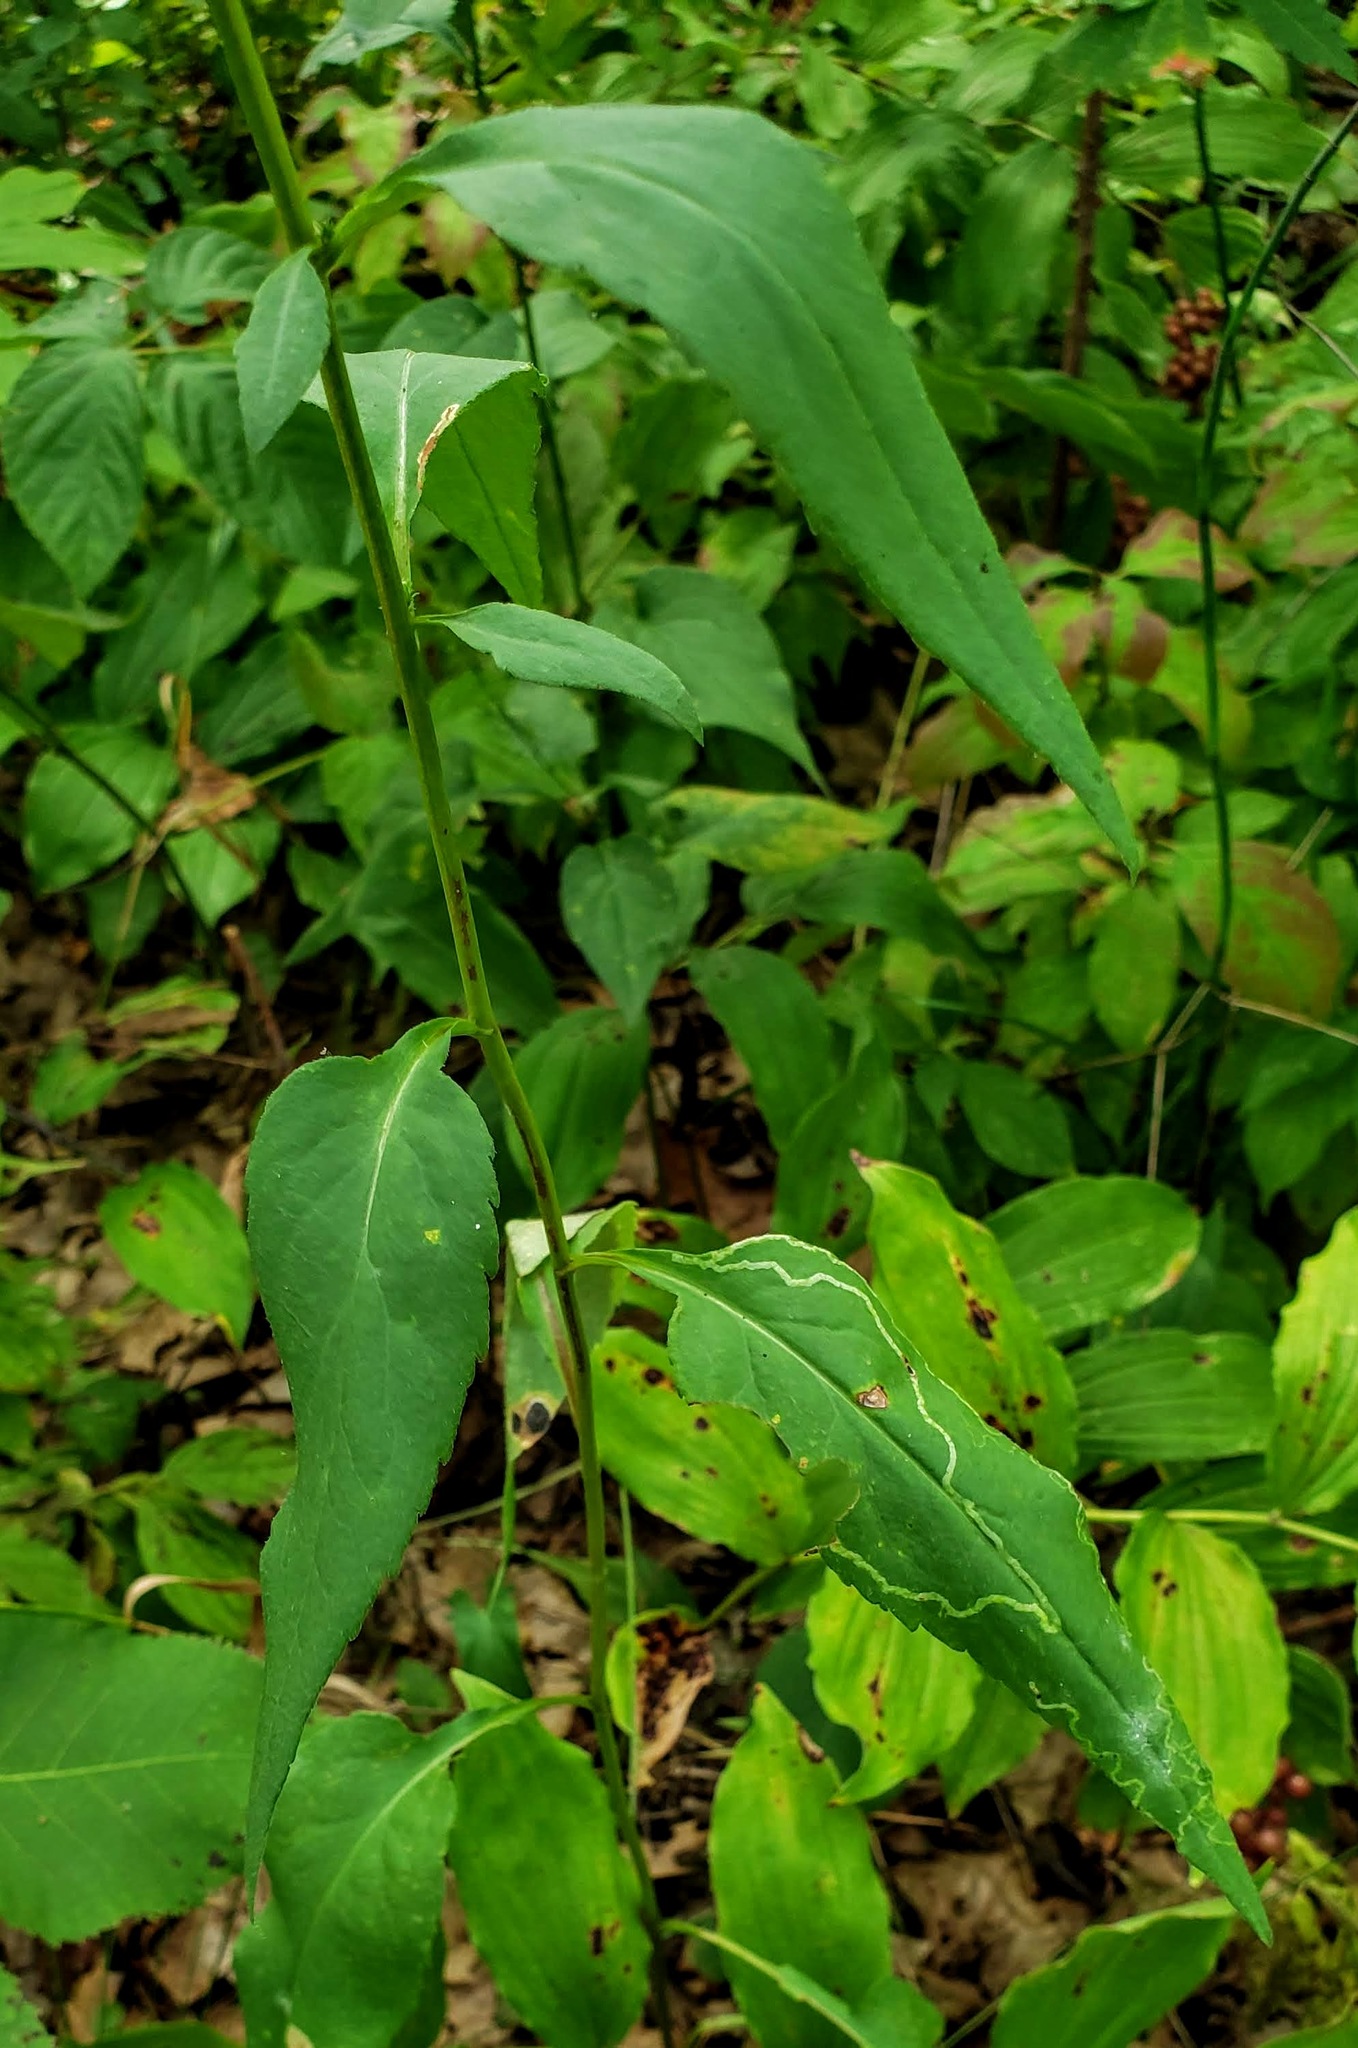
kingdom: Plantae
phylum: Tracheophyta
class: Magnoliopsida
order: Asterales
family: Asteraceae
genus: Symphyotrichum
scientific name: Symphyotrichum urophyllum
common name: Arrow-leaved aster
